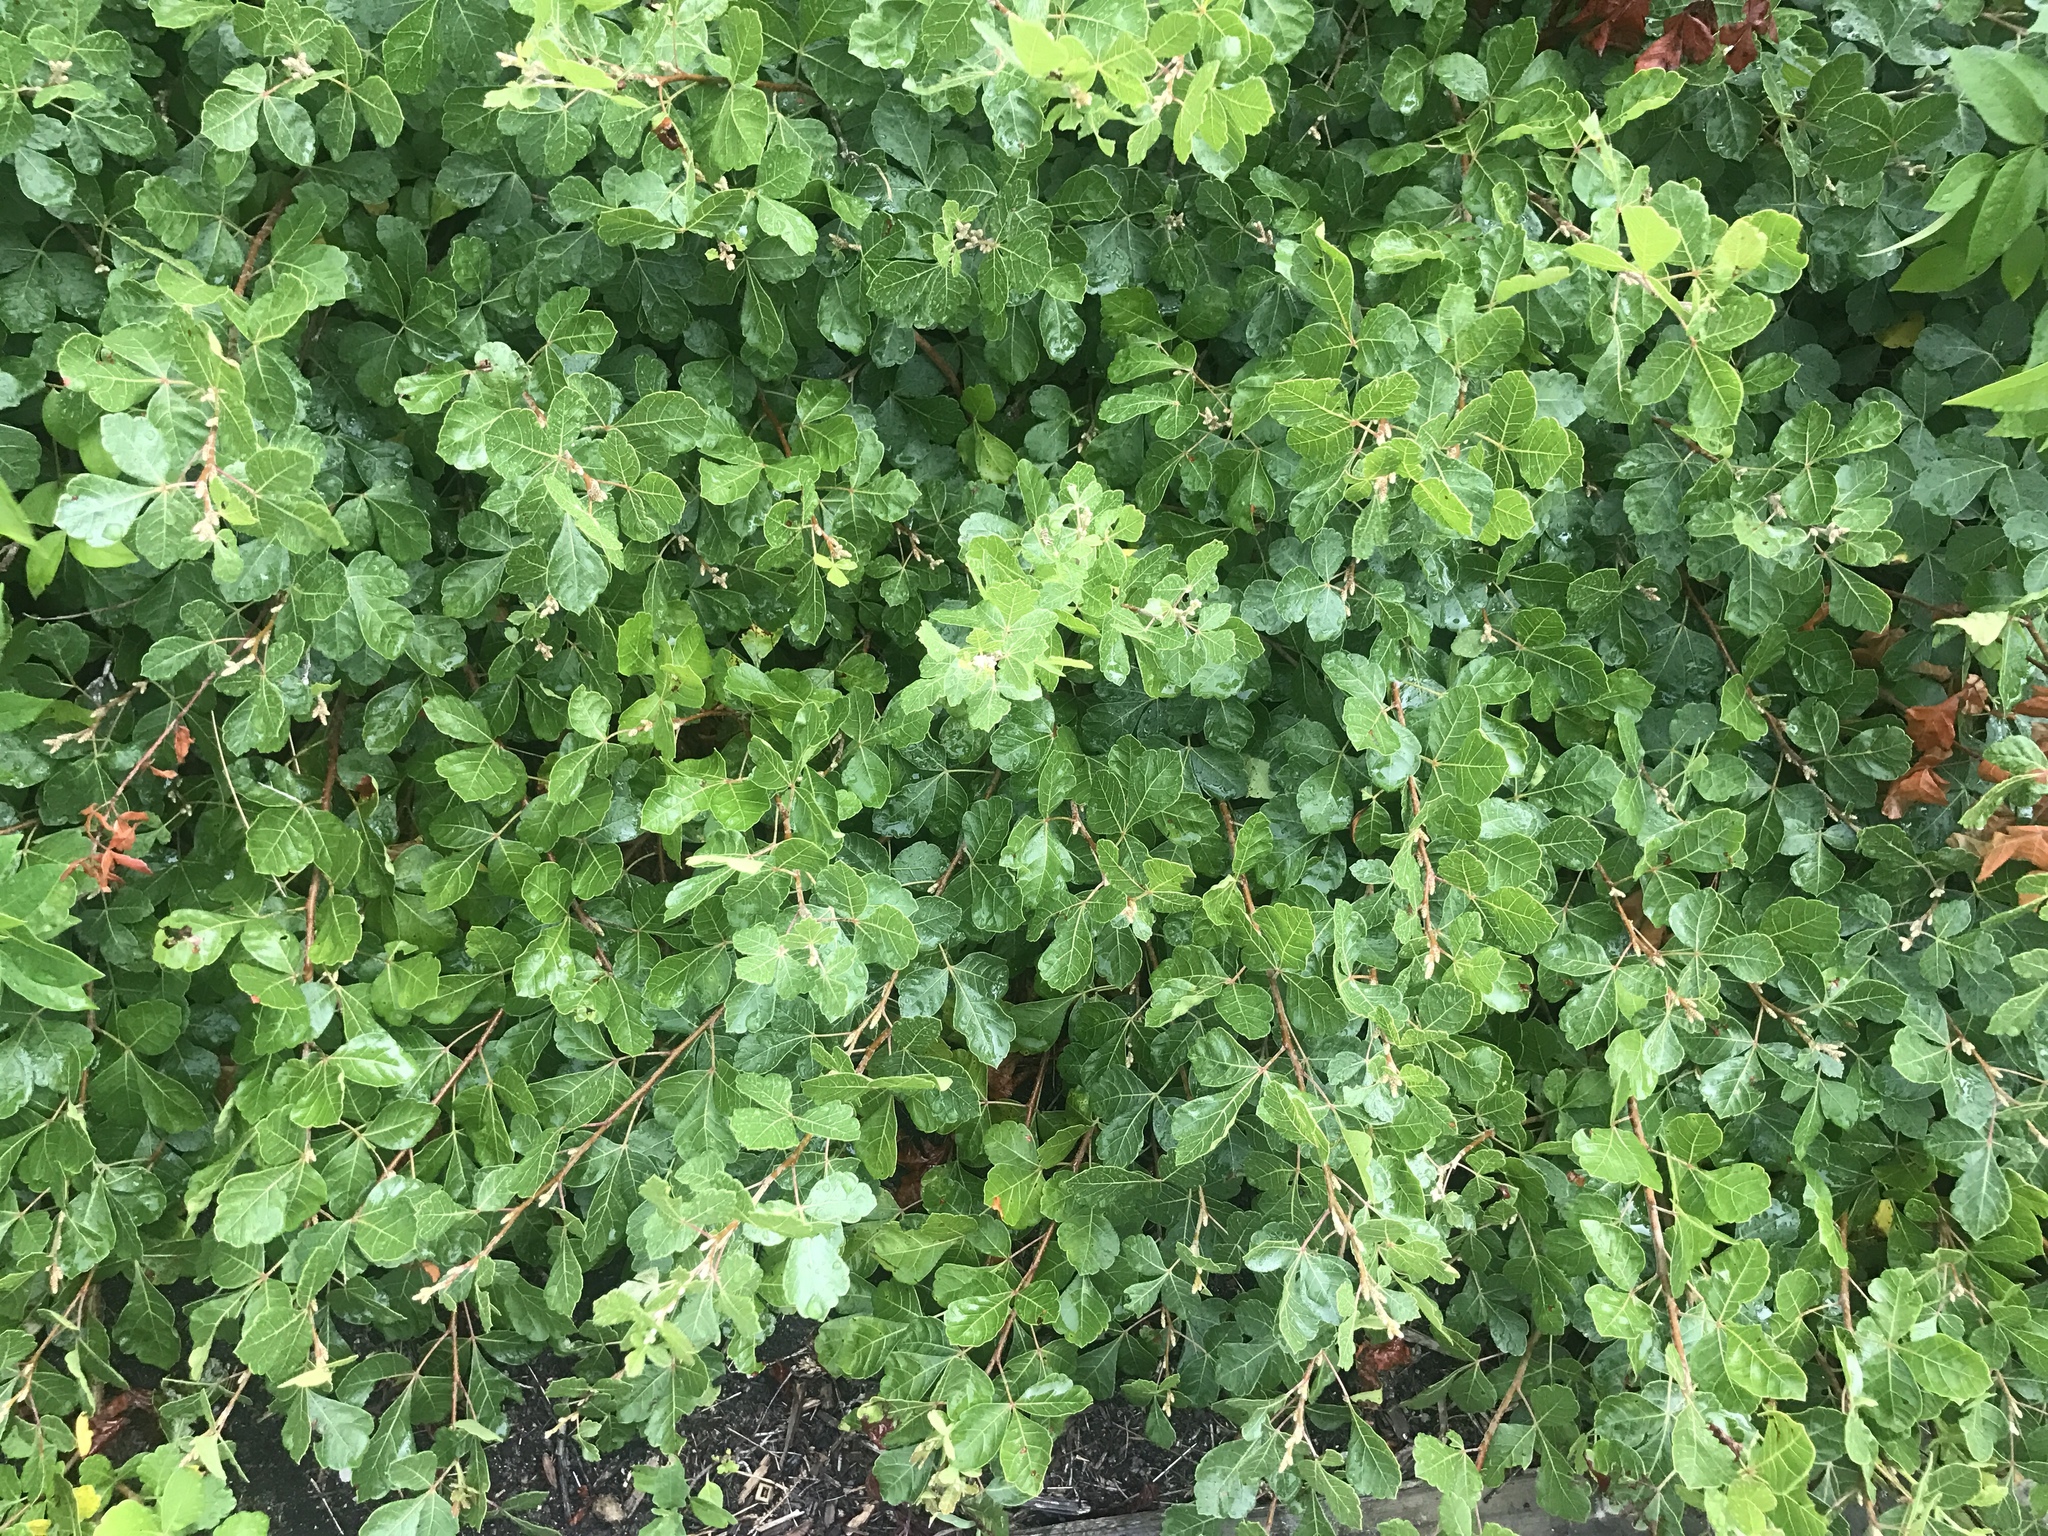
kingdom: Plantae
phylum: Tracheophyta
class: Magnoliopsida
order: Sapindales
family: Anacardiaceae
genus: Rhus
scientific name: Rhus aromatica
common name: Aromatic sumac
